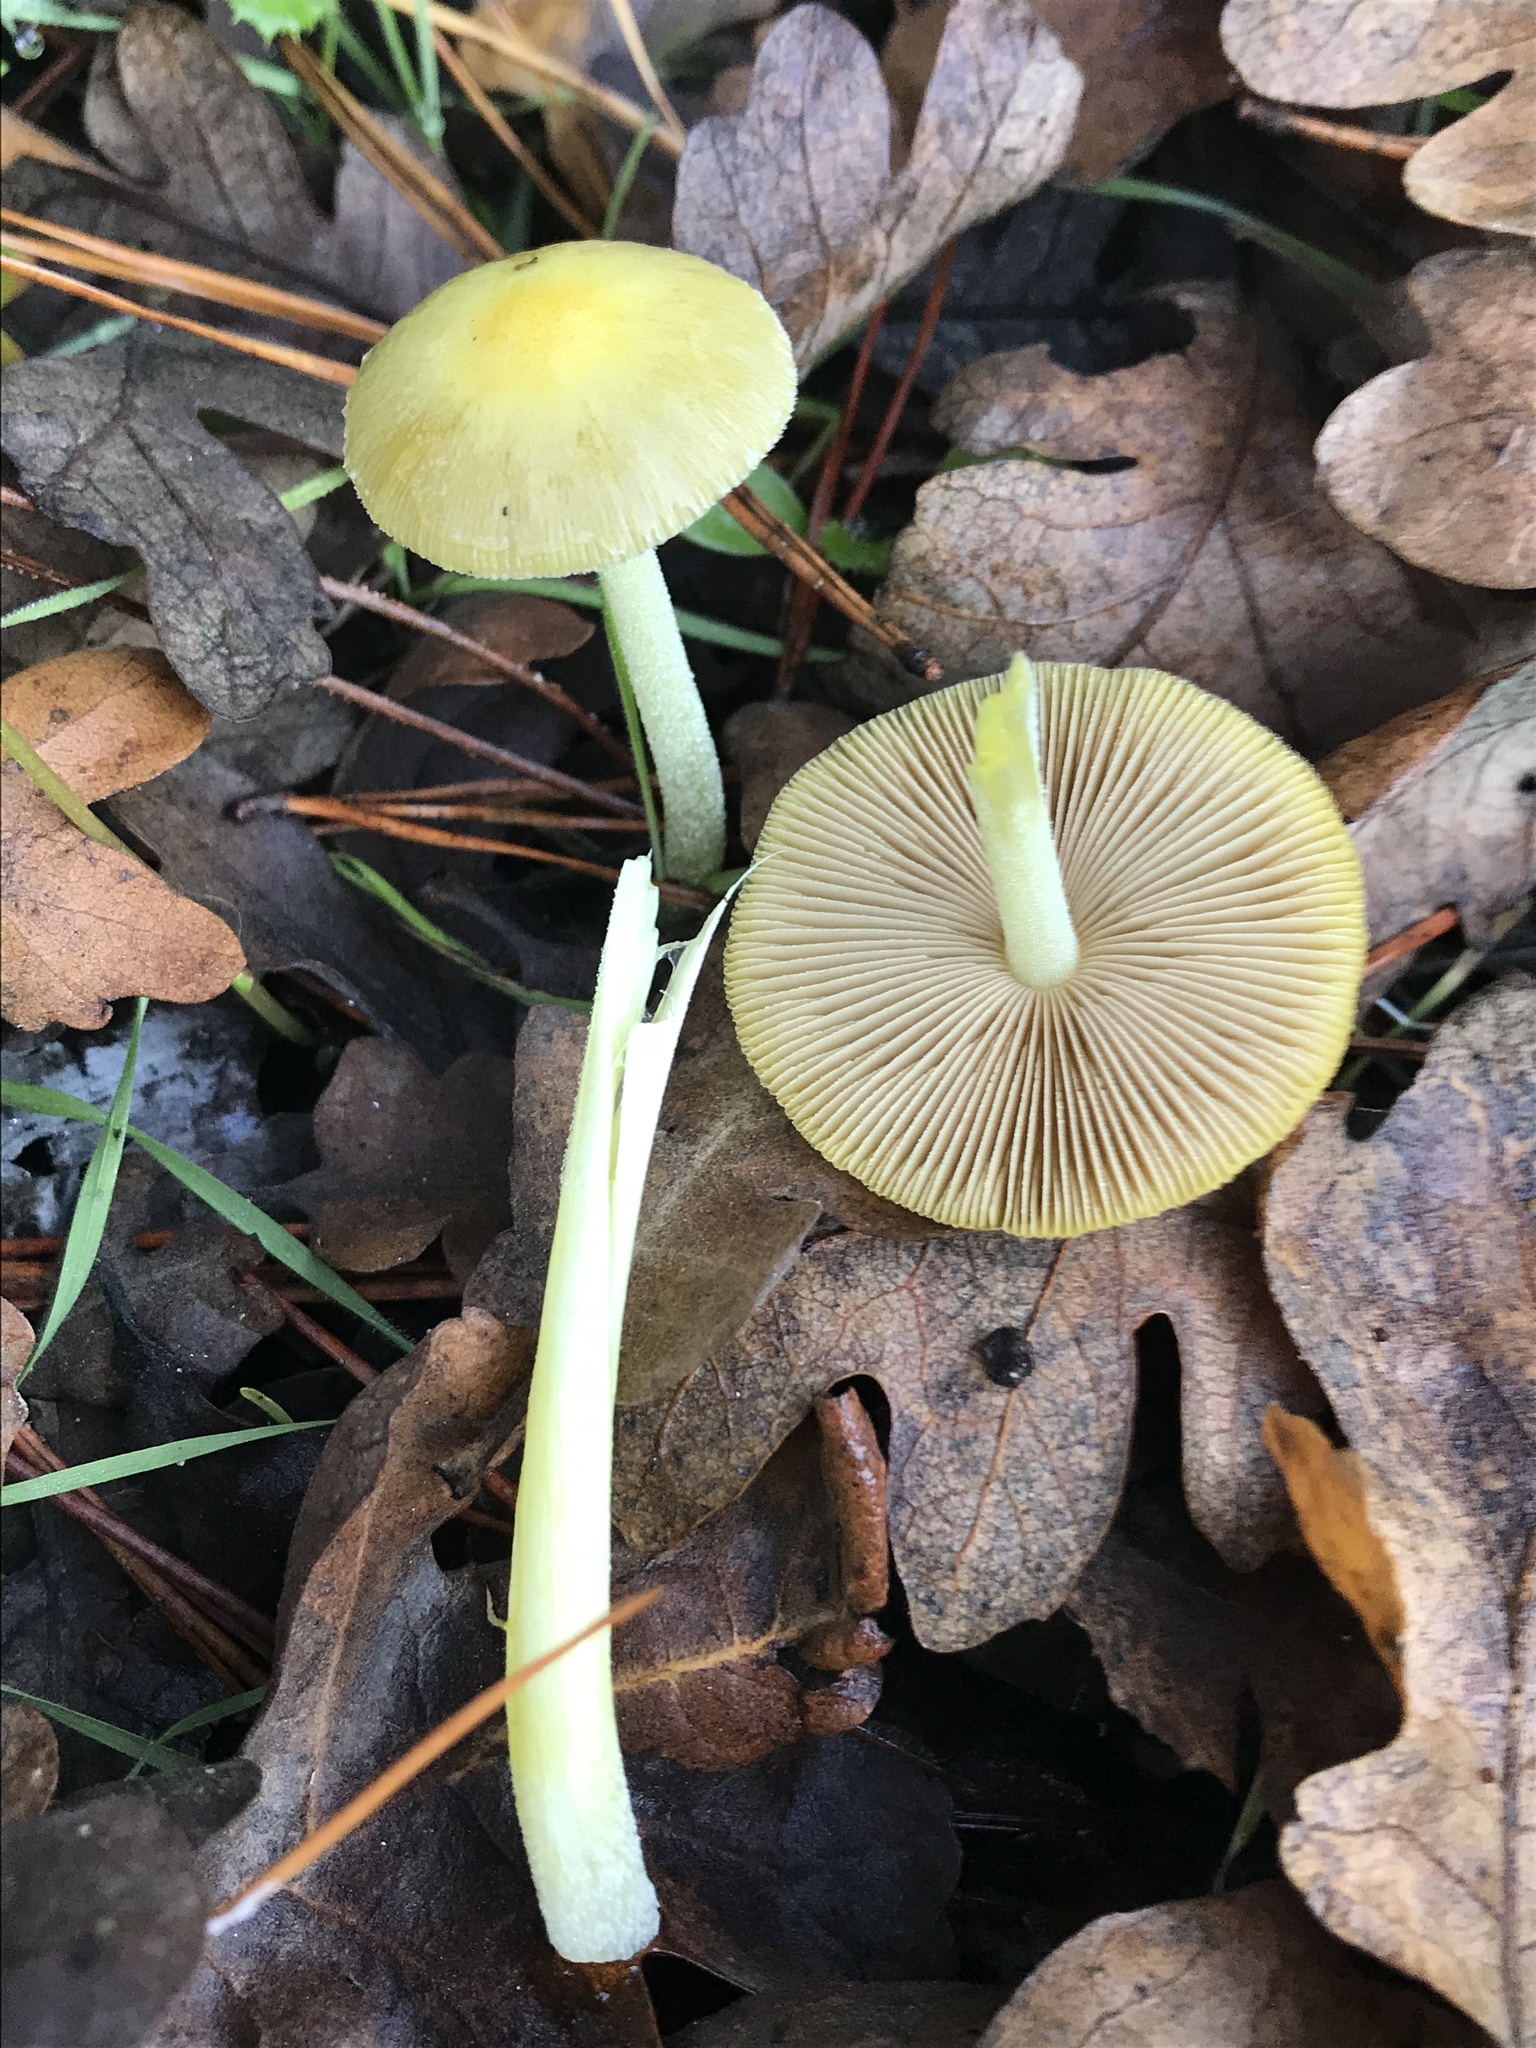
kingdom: Fungi
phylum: Basidiomycota
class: Agaricomycetes
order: Agaricales
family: Bolbitiaceae
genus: Bolbitius
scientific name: Bolbitius titubans
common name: Yellow fieldcap
